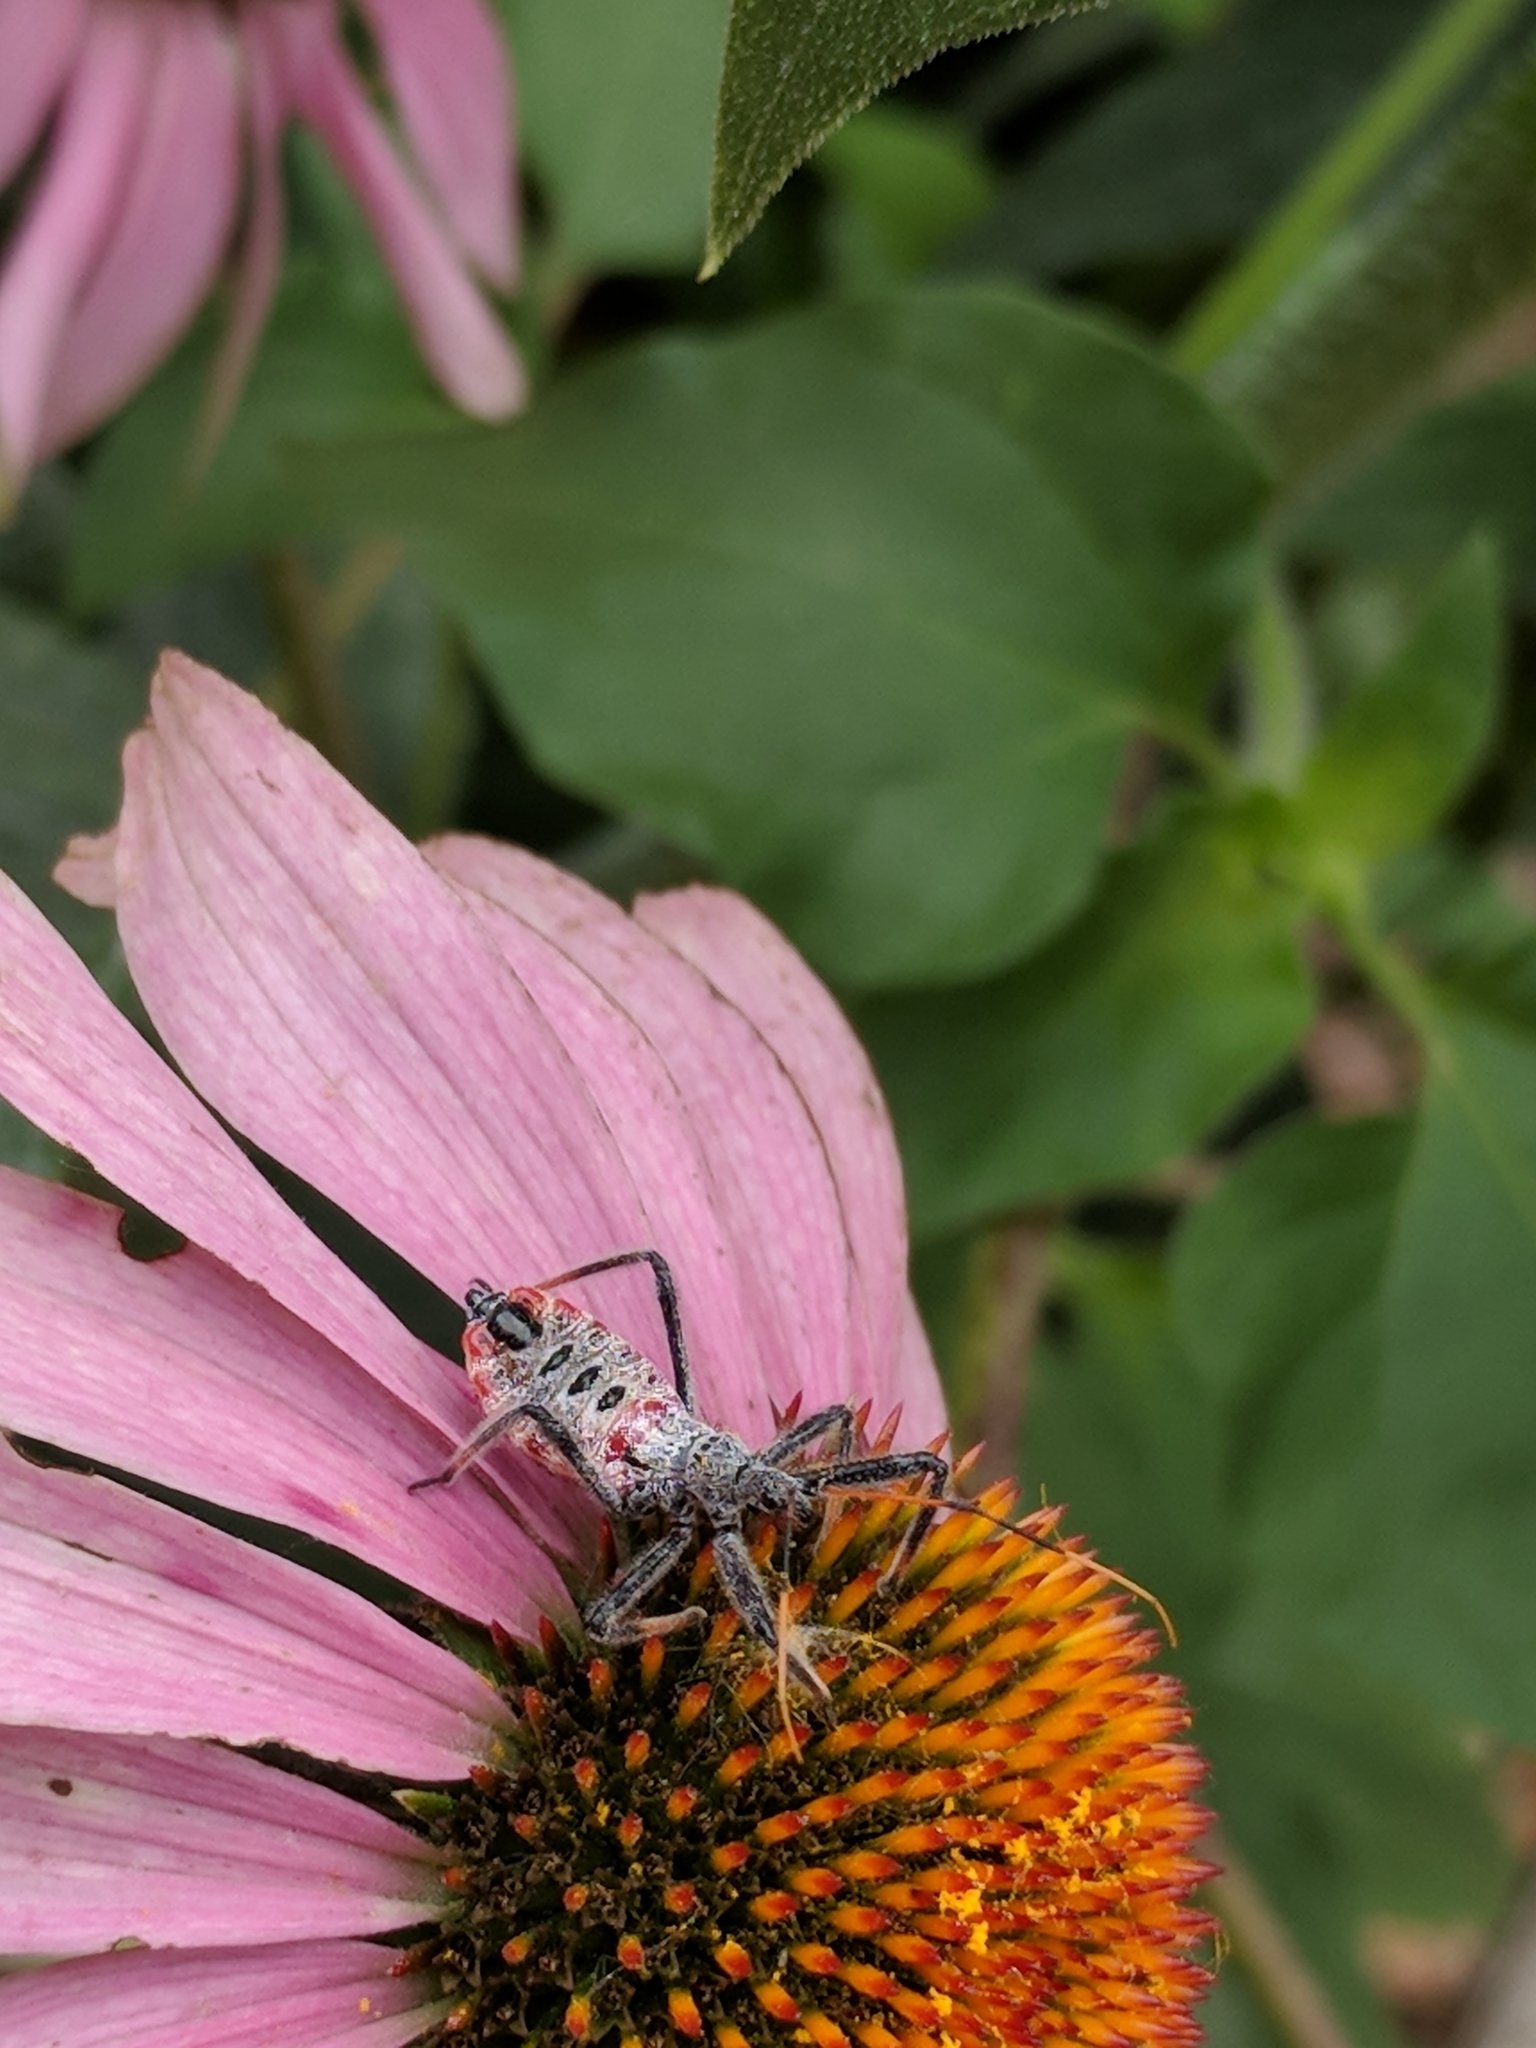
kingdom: Animalia
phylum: Arthropoda
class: Insecta
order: Hemiptera
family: Reduviidae
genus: Arilus
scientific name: Arilus cristatus
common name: North american wheel bug
